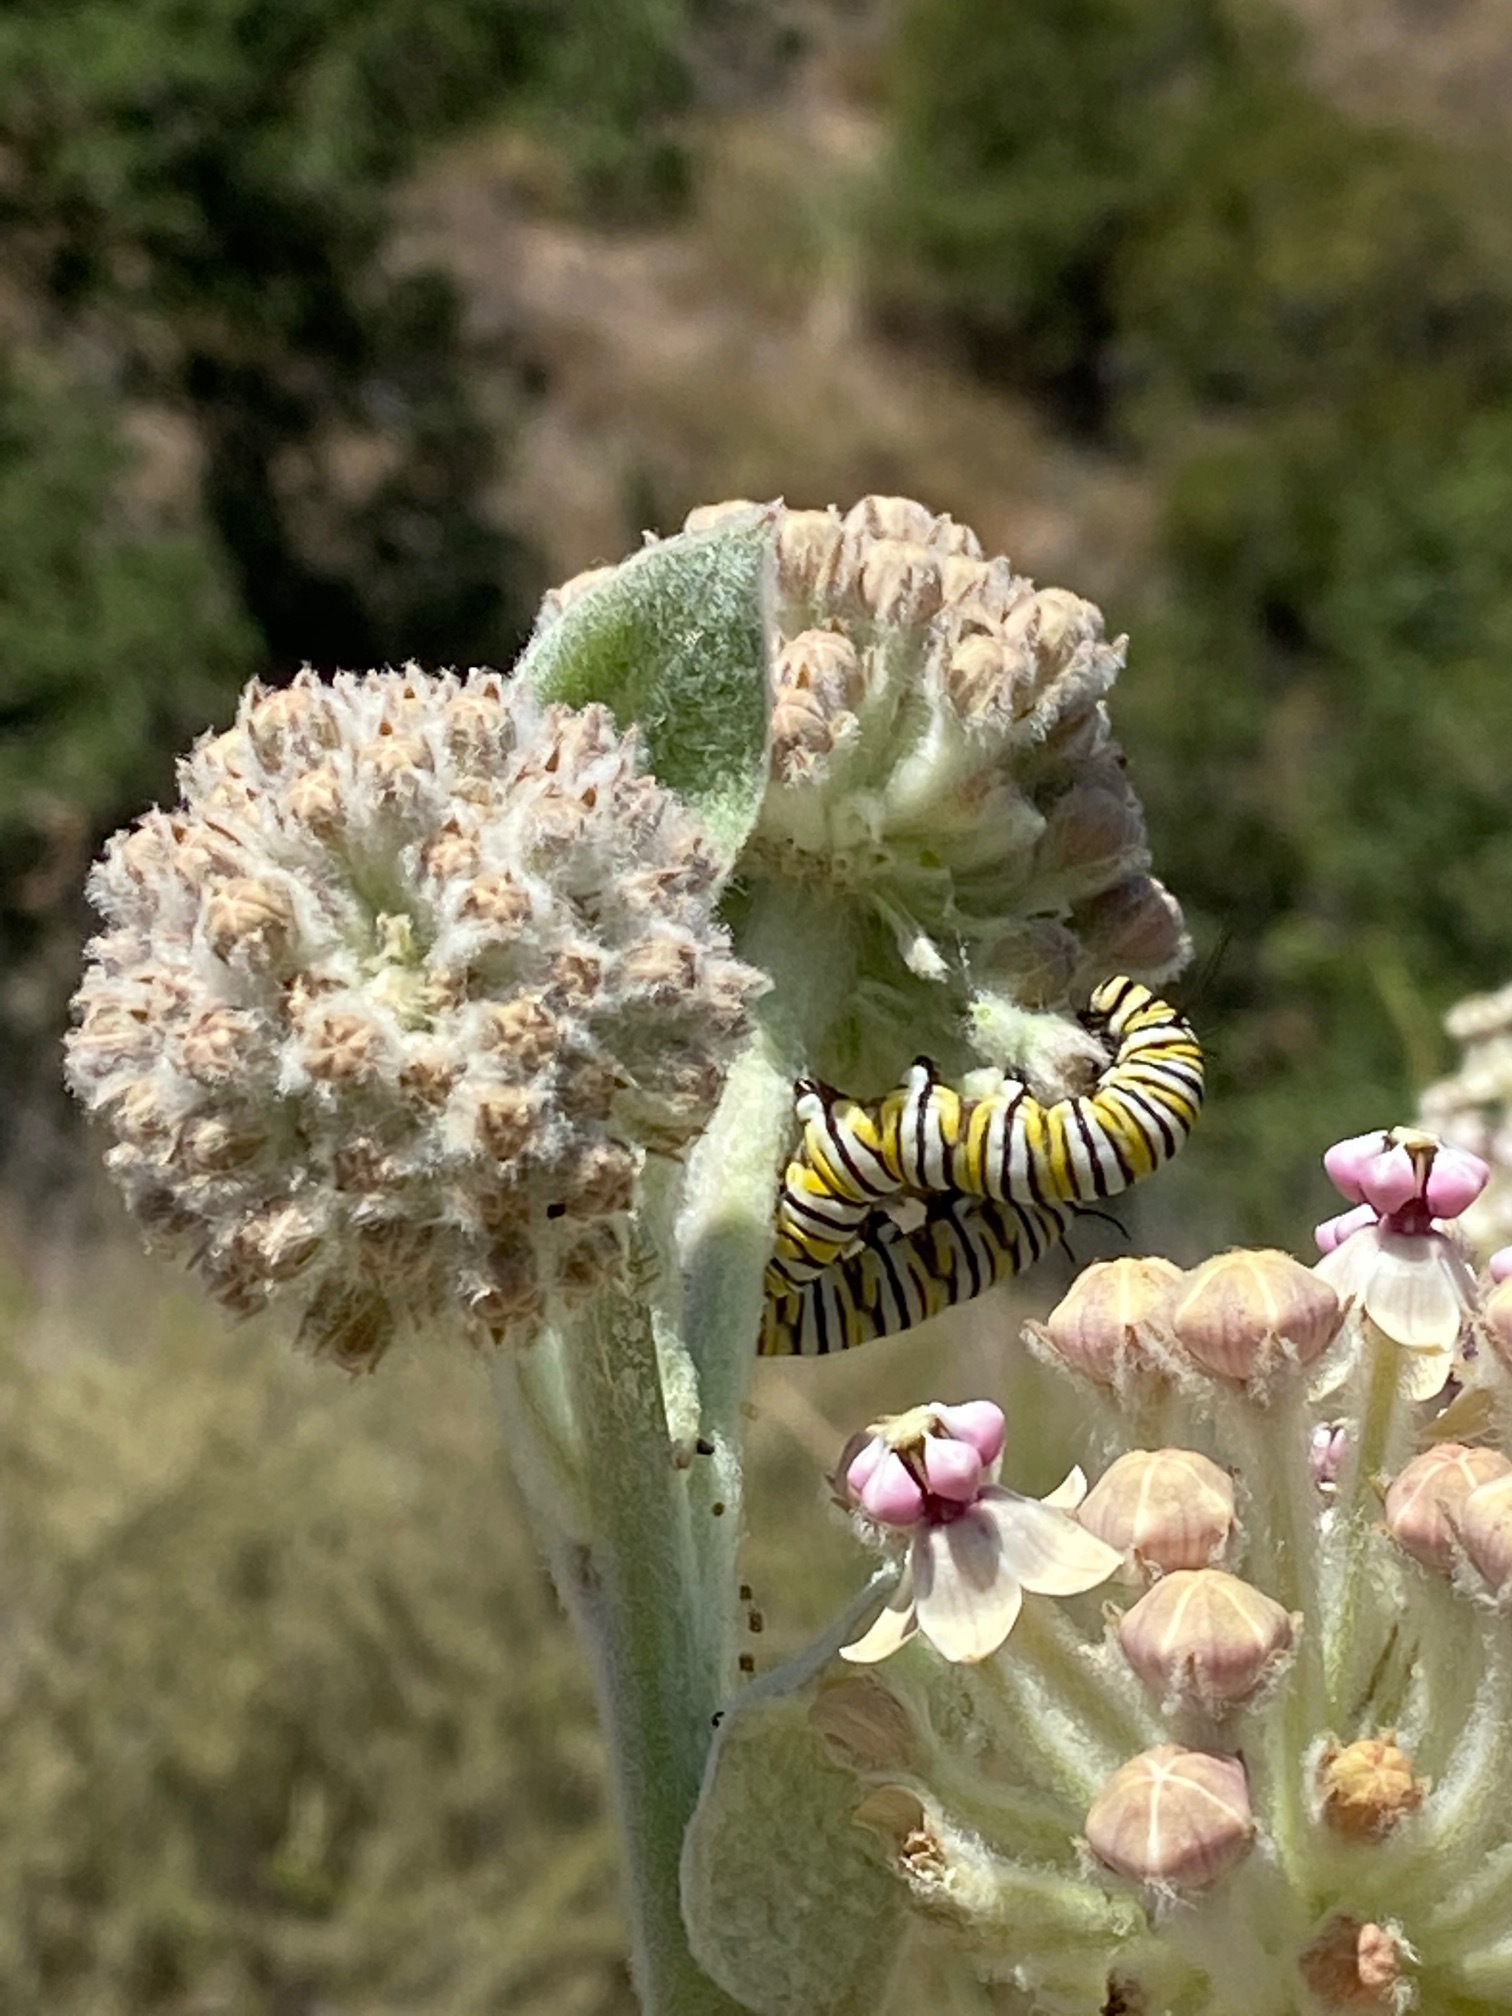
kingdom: Animalia
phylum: Arthropoda
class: Insecta
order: Lepidoptera
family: Nymphalidae
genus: Danaus
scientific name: Danaus plexippus
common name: Monarch
